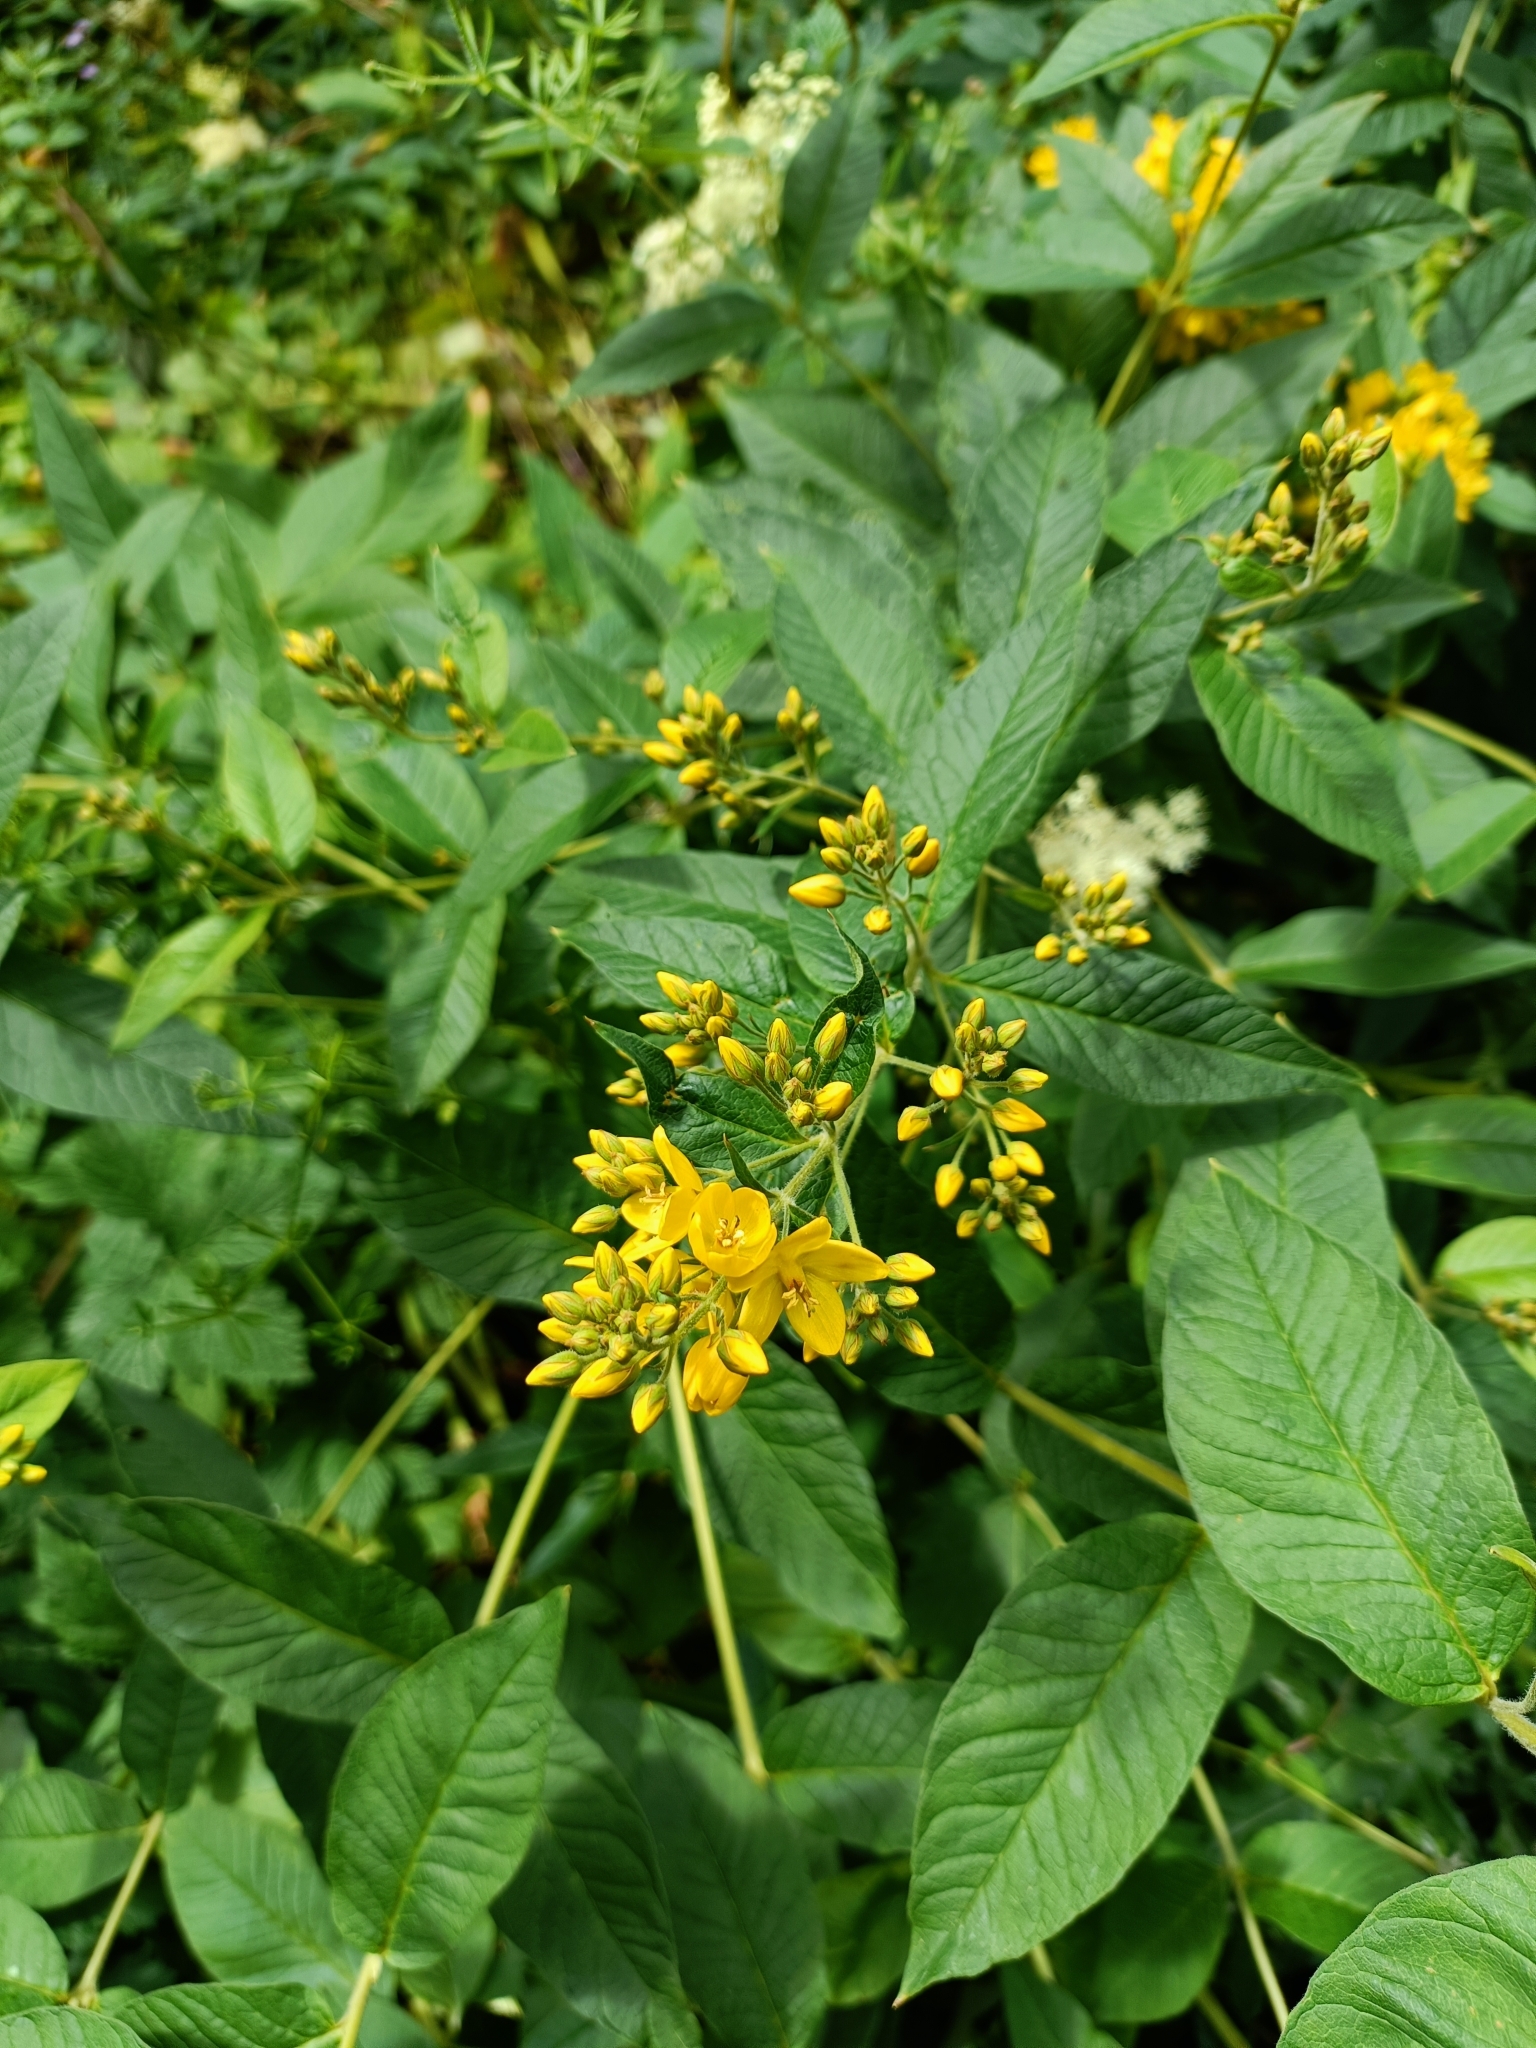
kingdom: Plantae
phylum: Tracheophyta
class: Magnoliopsida
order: Ericales
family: Primulaceae
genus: Lysimachia
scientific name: Lysimachia vulgaris
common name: Yellow loosestrife
